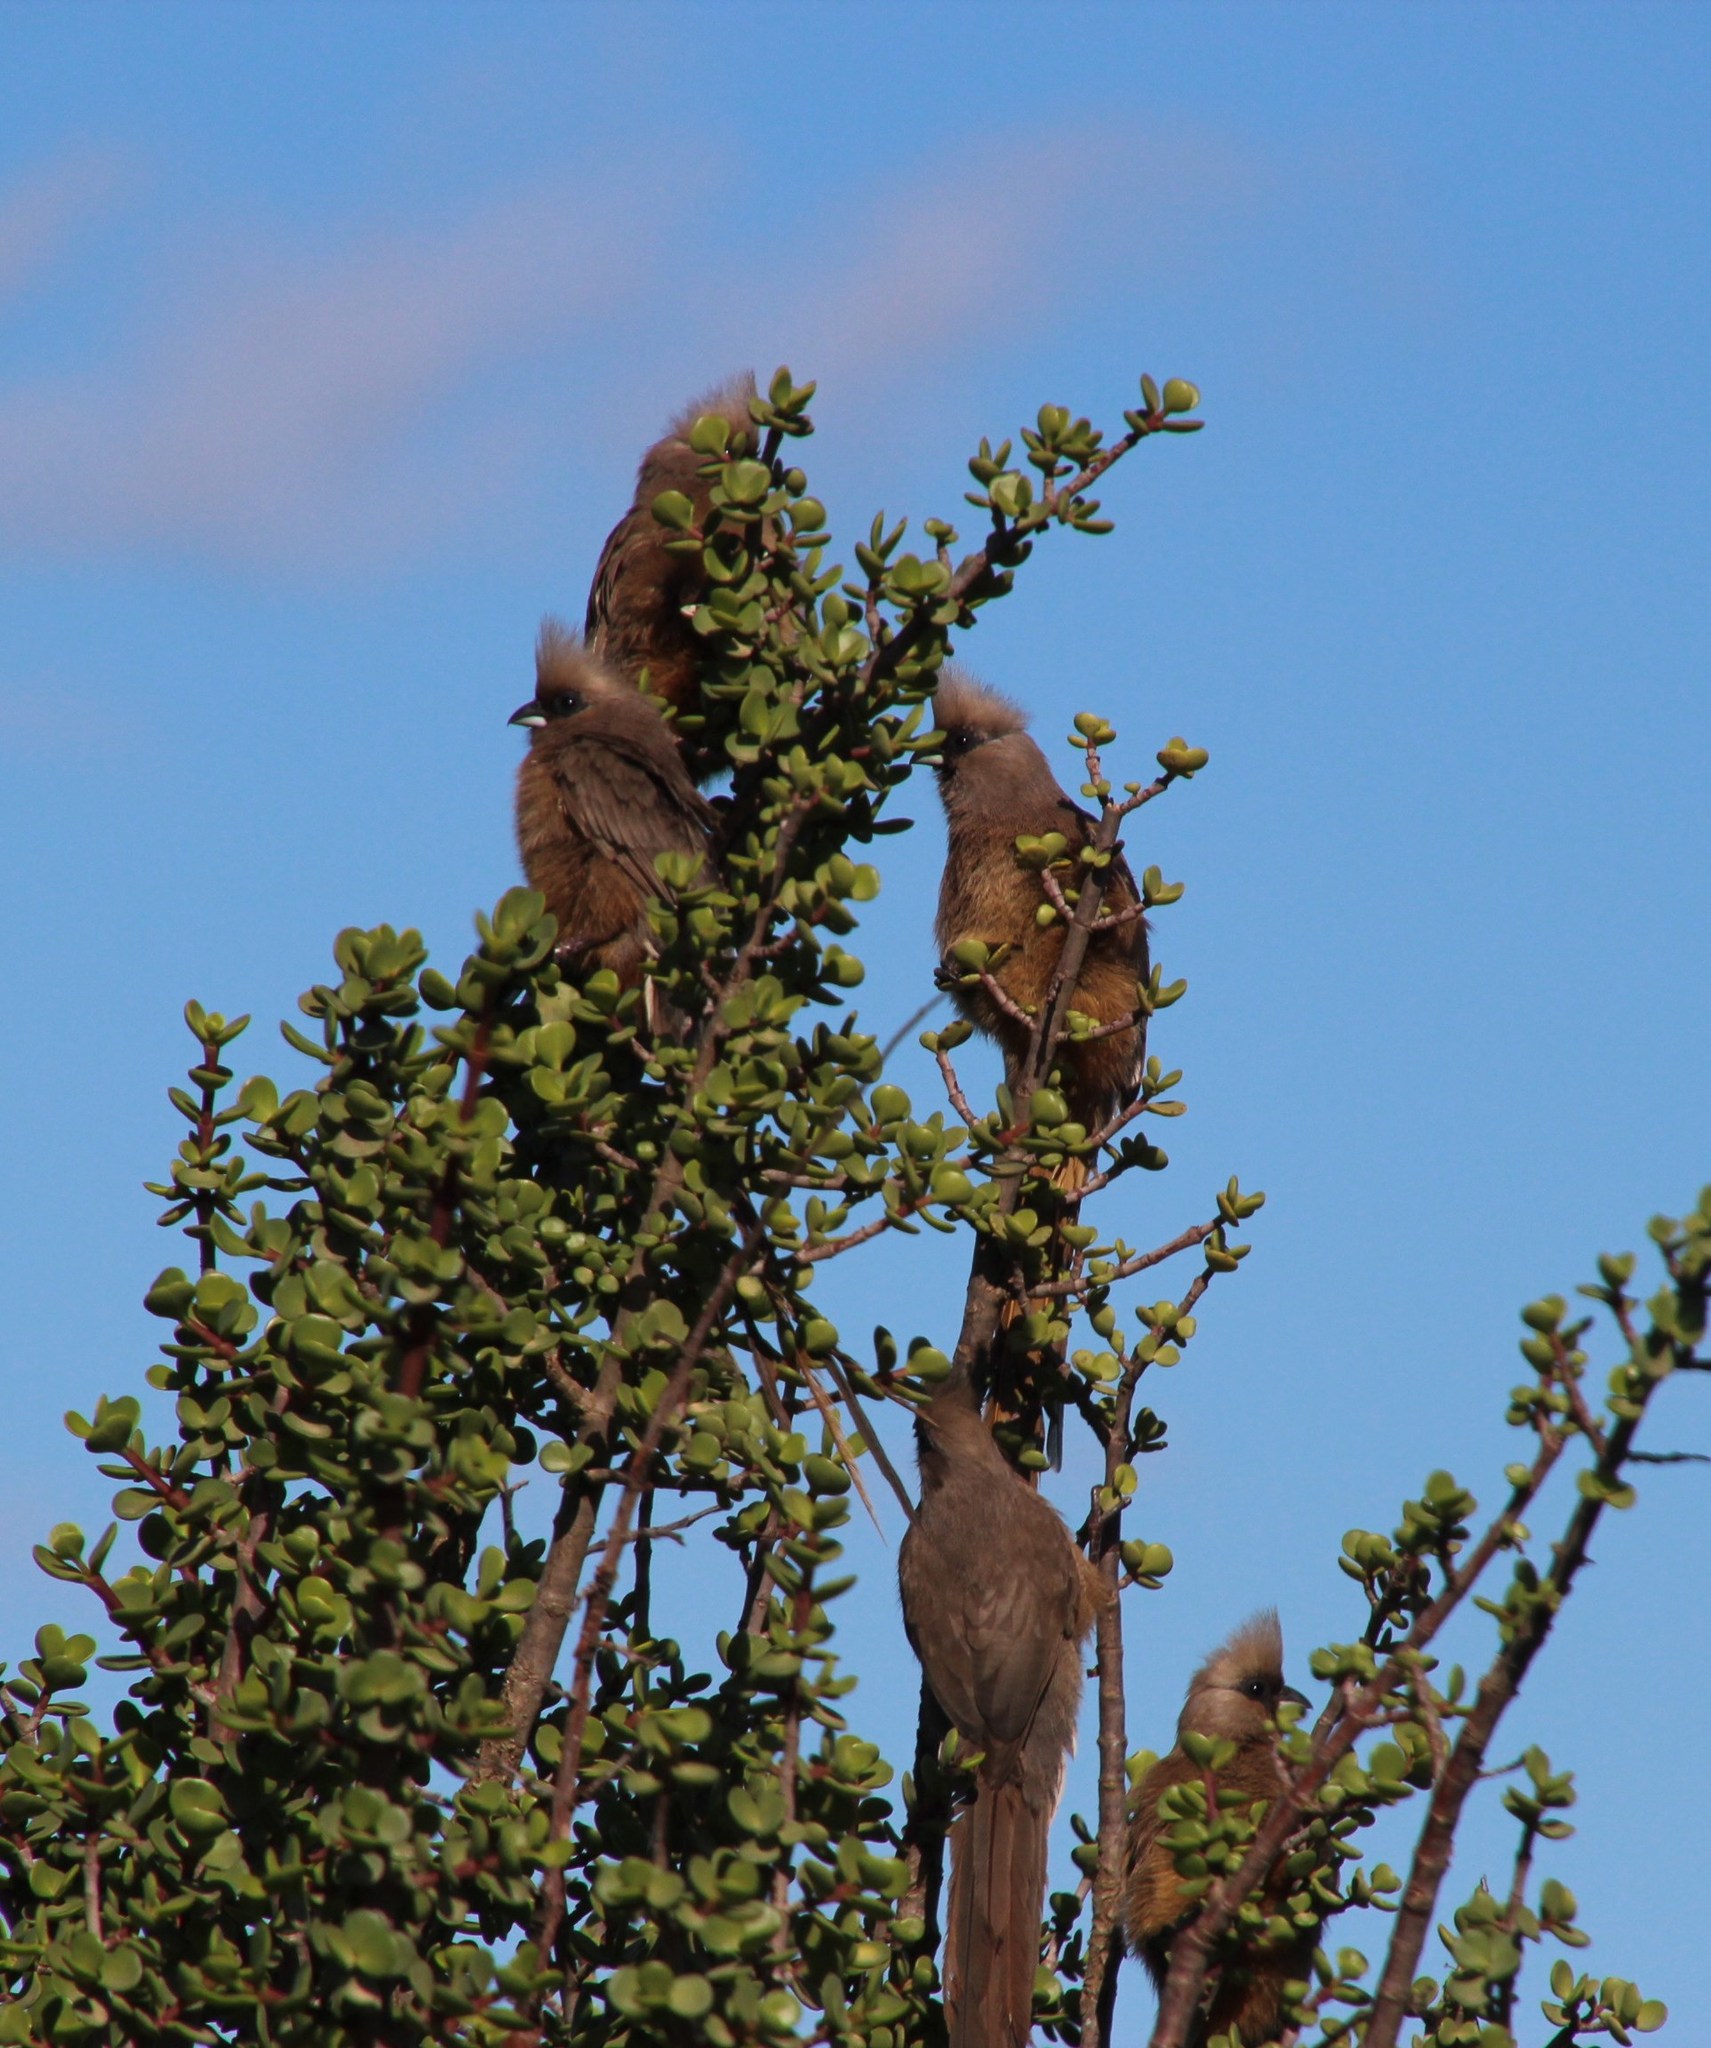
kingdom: Animalia
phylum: Chordata
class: Aves
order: Coliiformes
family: Coliidae
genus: Colius
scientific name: Colius striatus
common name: Speckled mousebird
